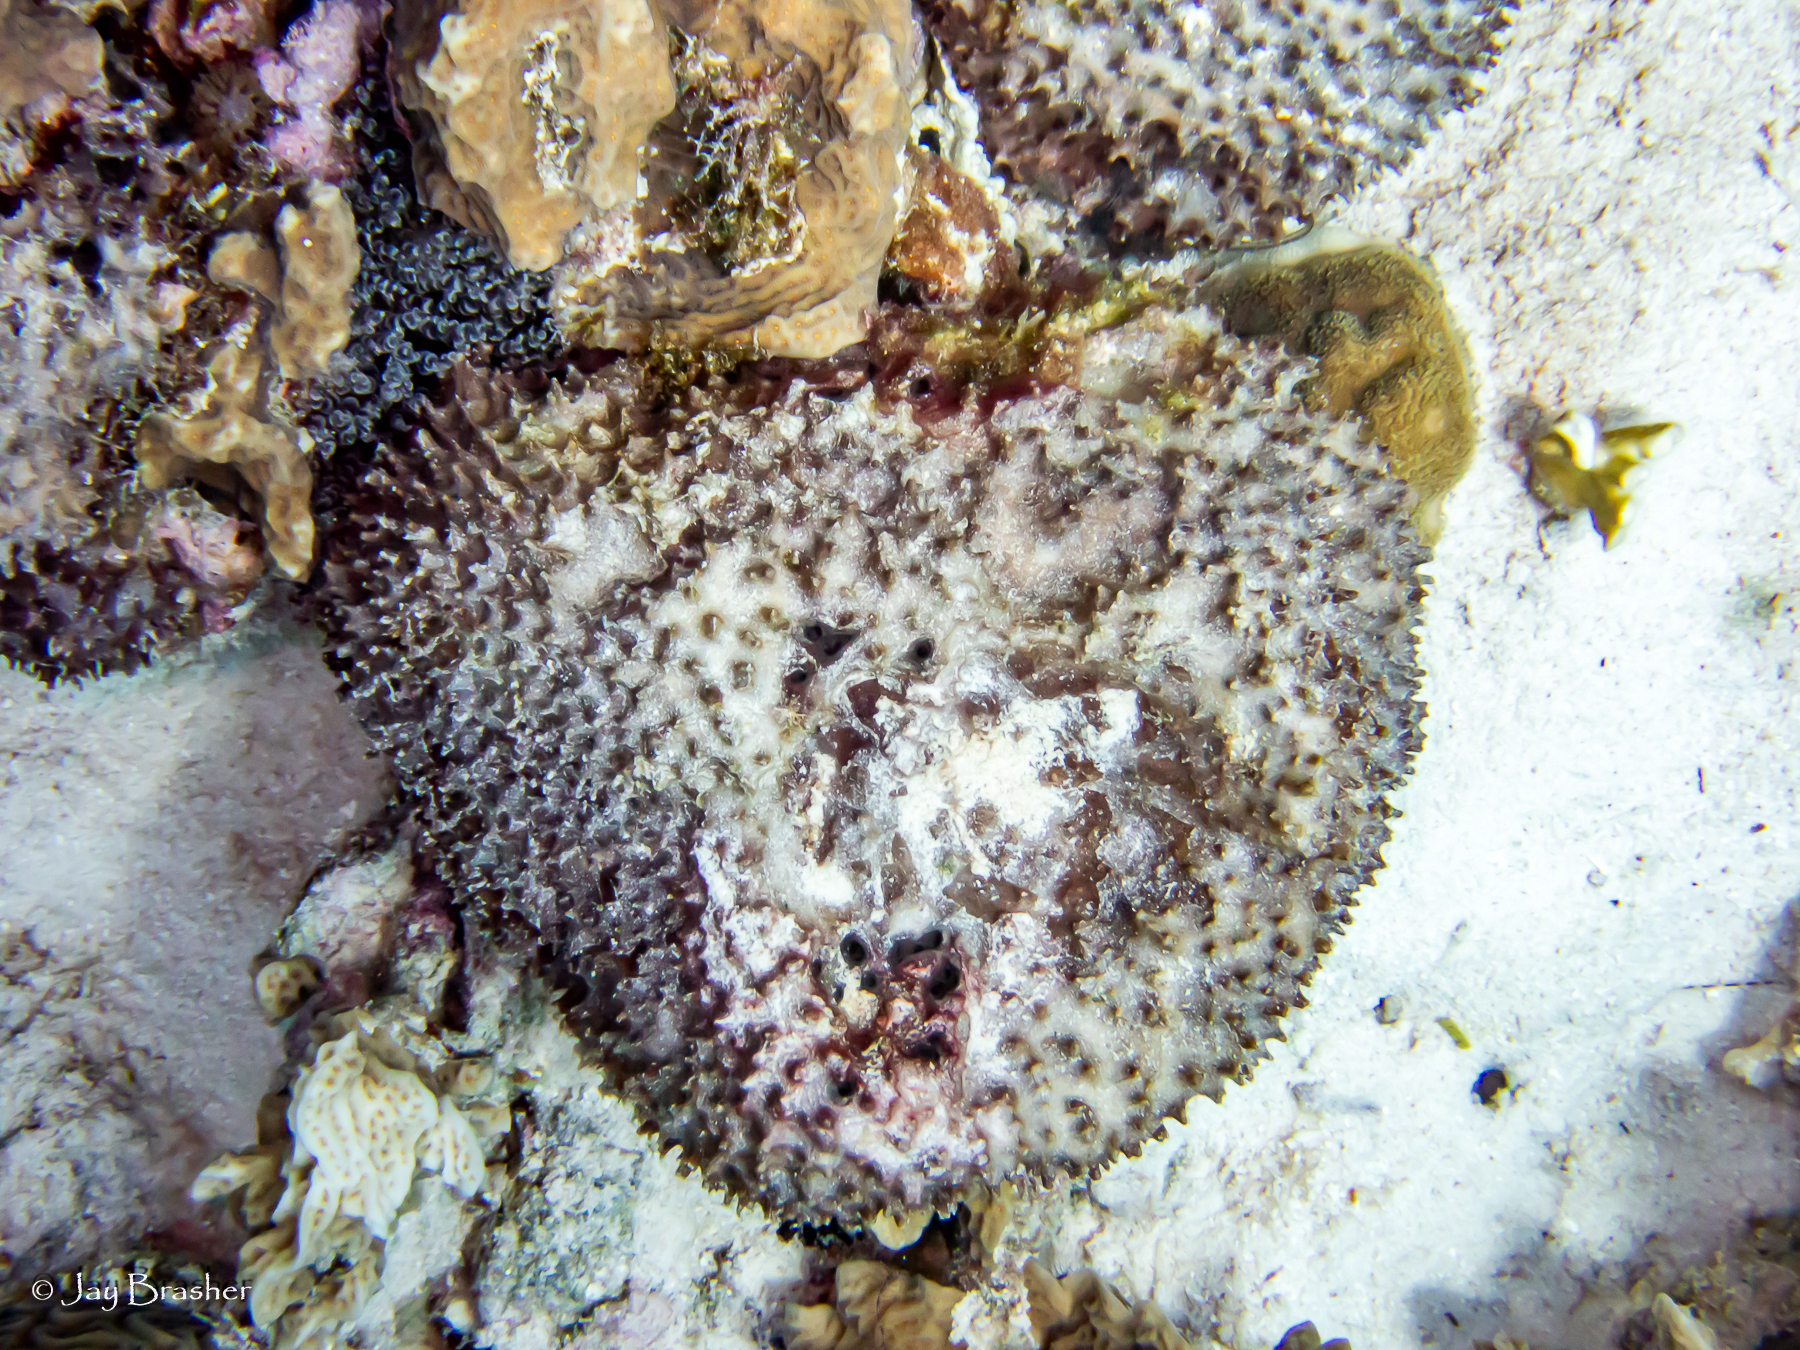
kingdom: Animalia
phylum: Porifera
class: Demospongiae
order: Dictyoceratida
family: Irciniidae
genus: Ircinia
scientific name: Ircinia felix
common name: Stinker sponge
